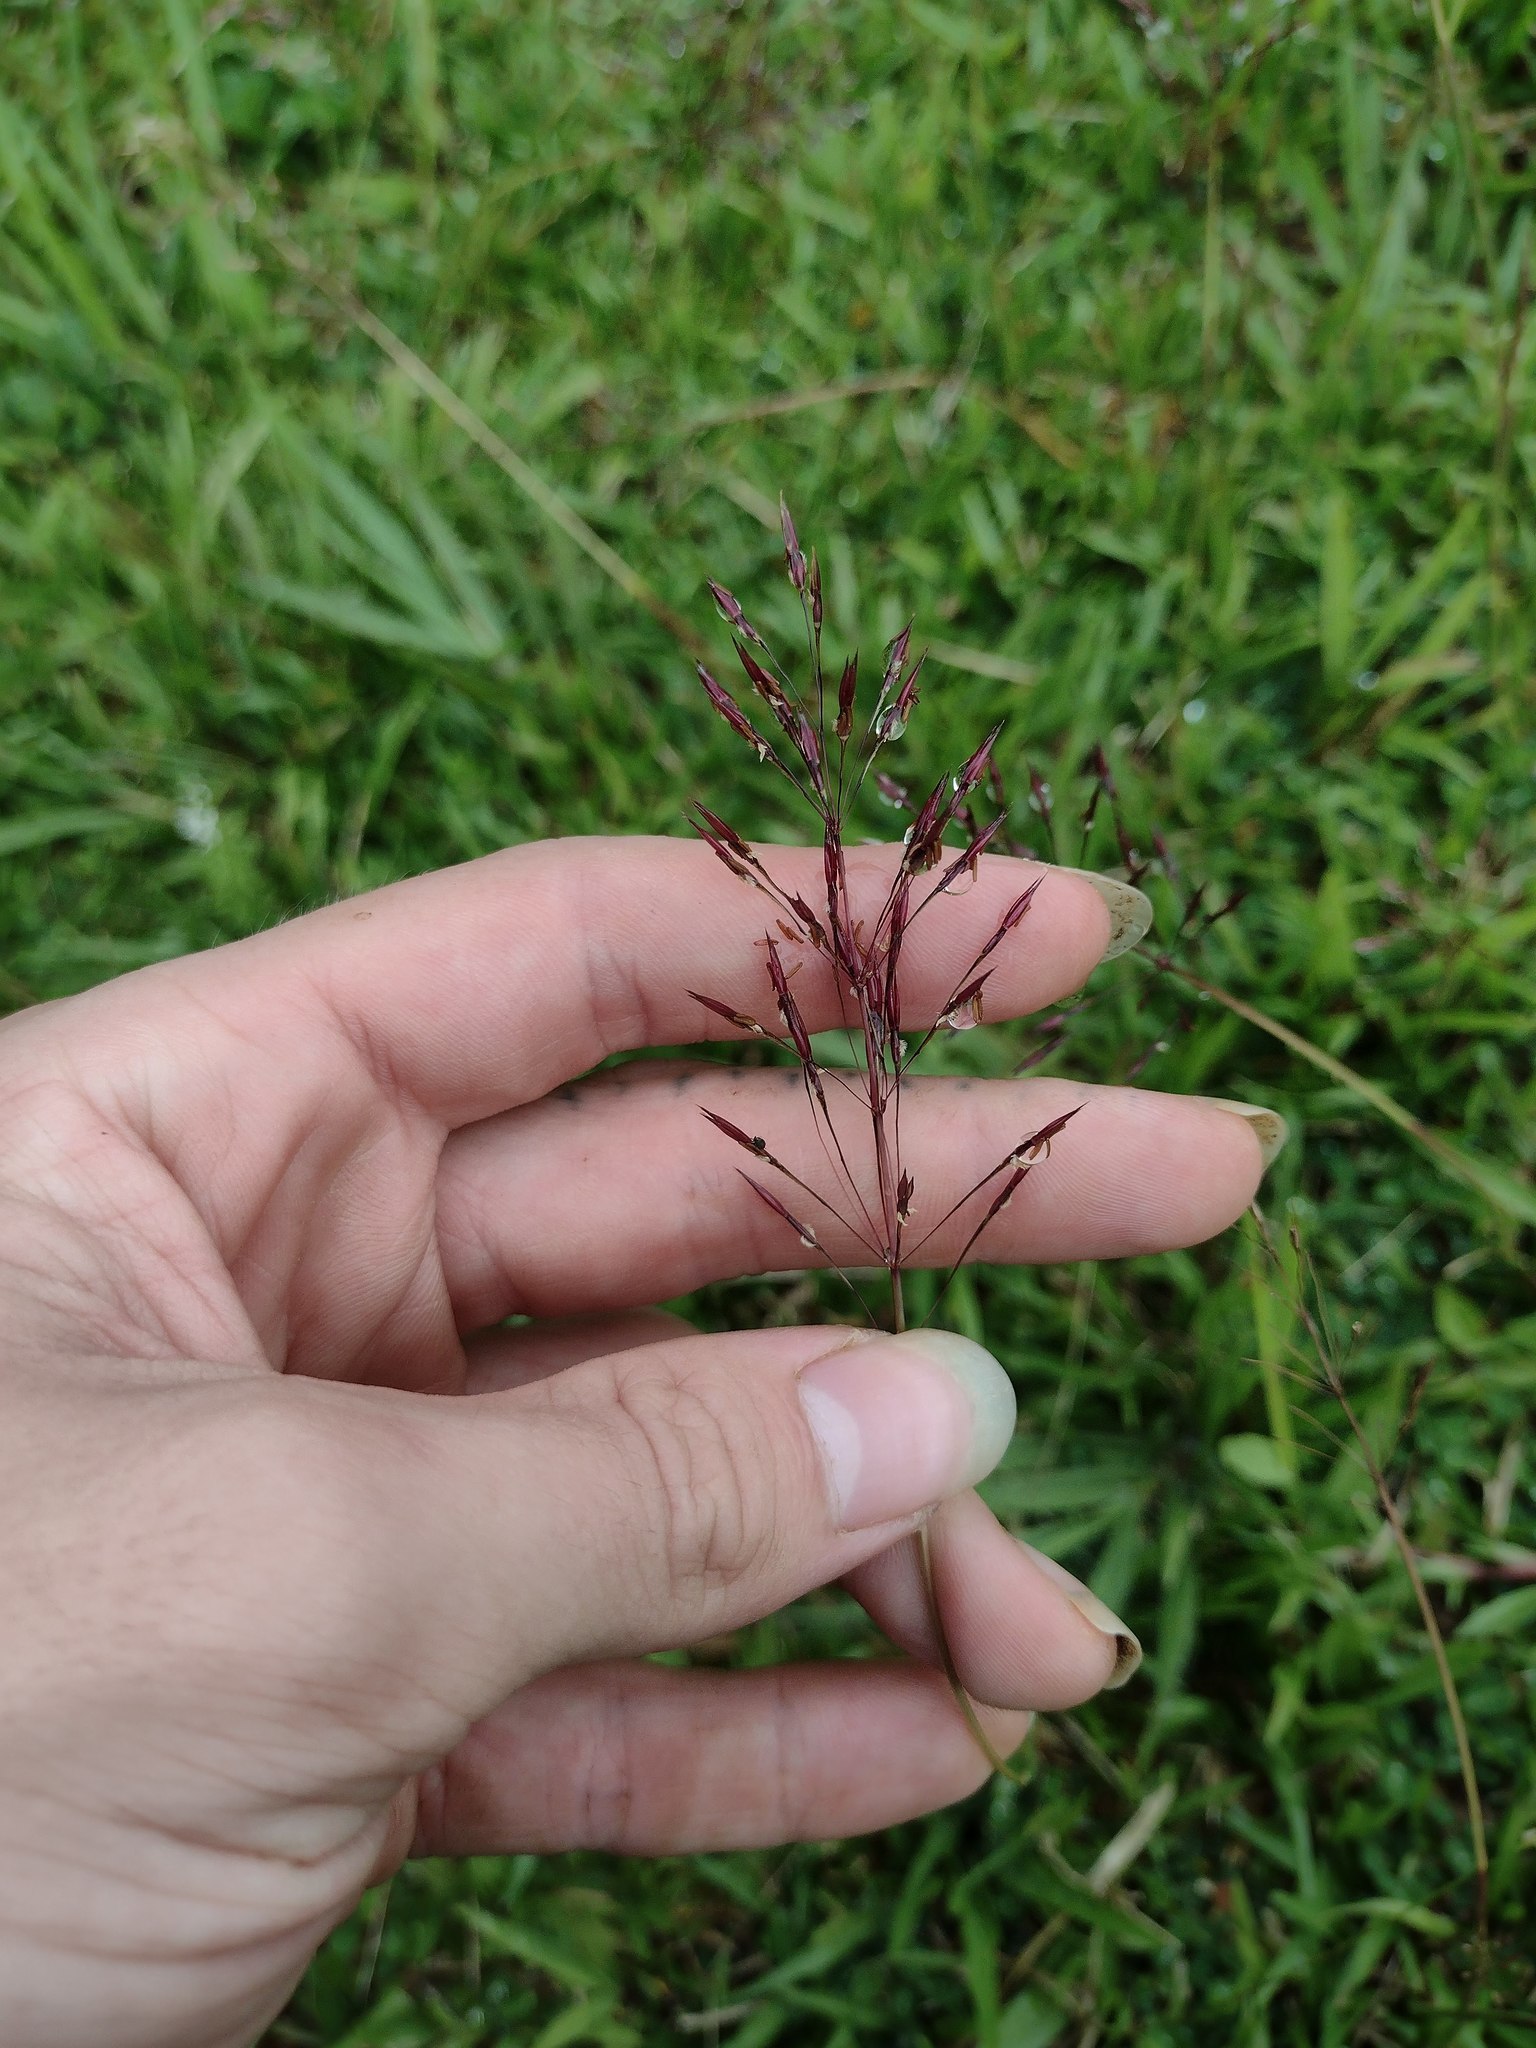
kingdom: Plantae
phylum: Tracheophyta
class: Liliopsida
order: Poales
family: Poaceae
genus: Chrysopogon
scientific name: Chrysopogon aciculatus
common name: Pilipiliula
